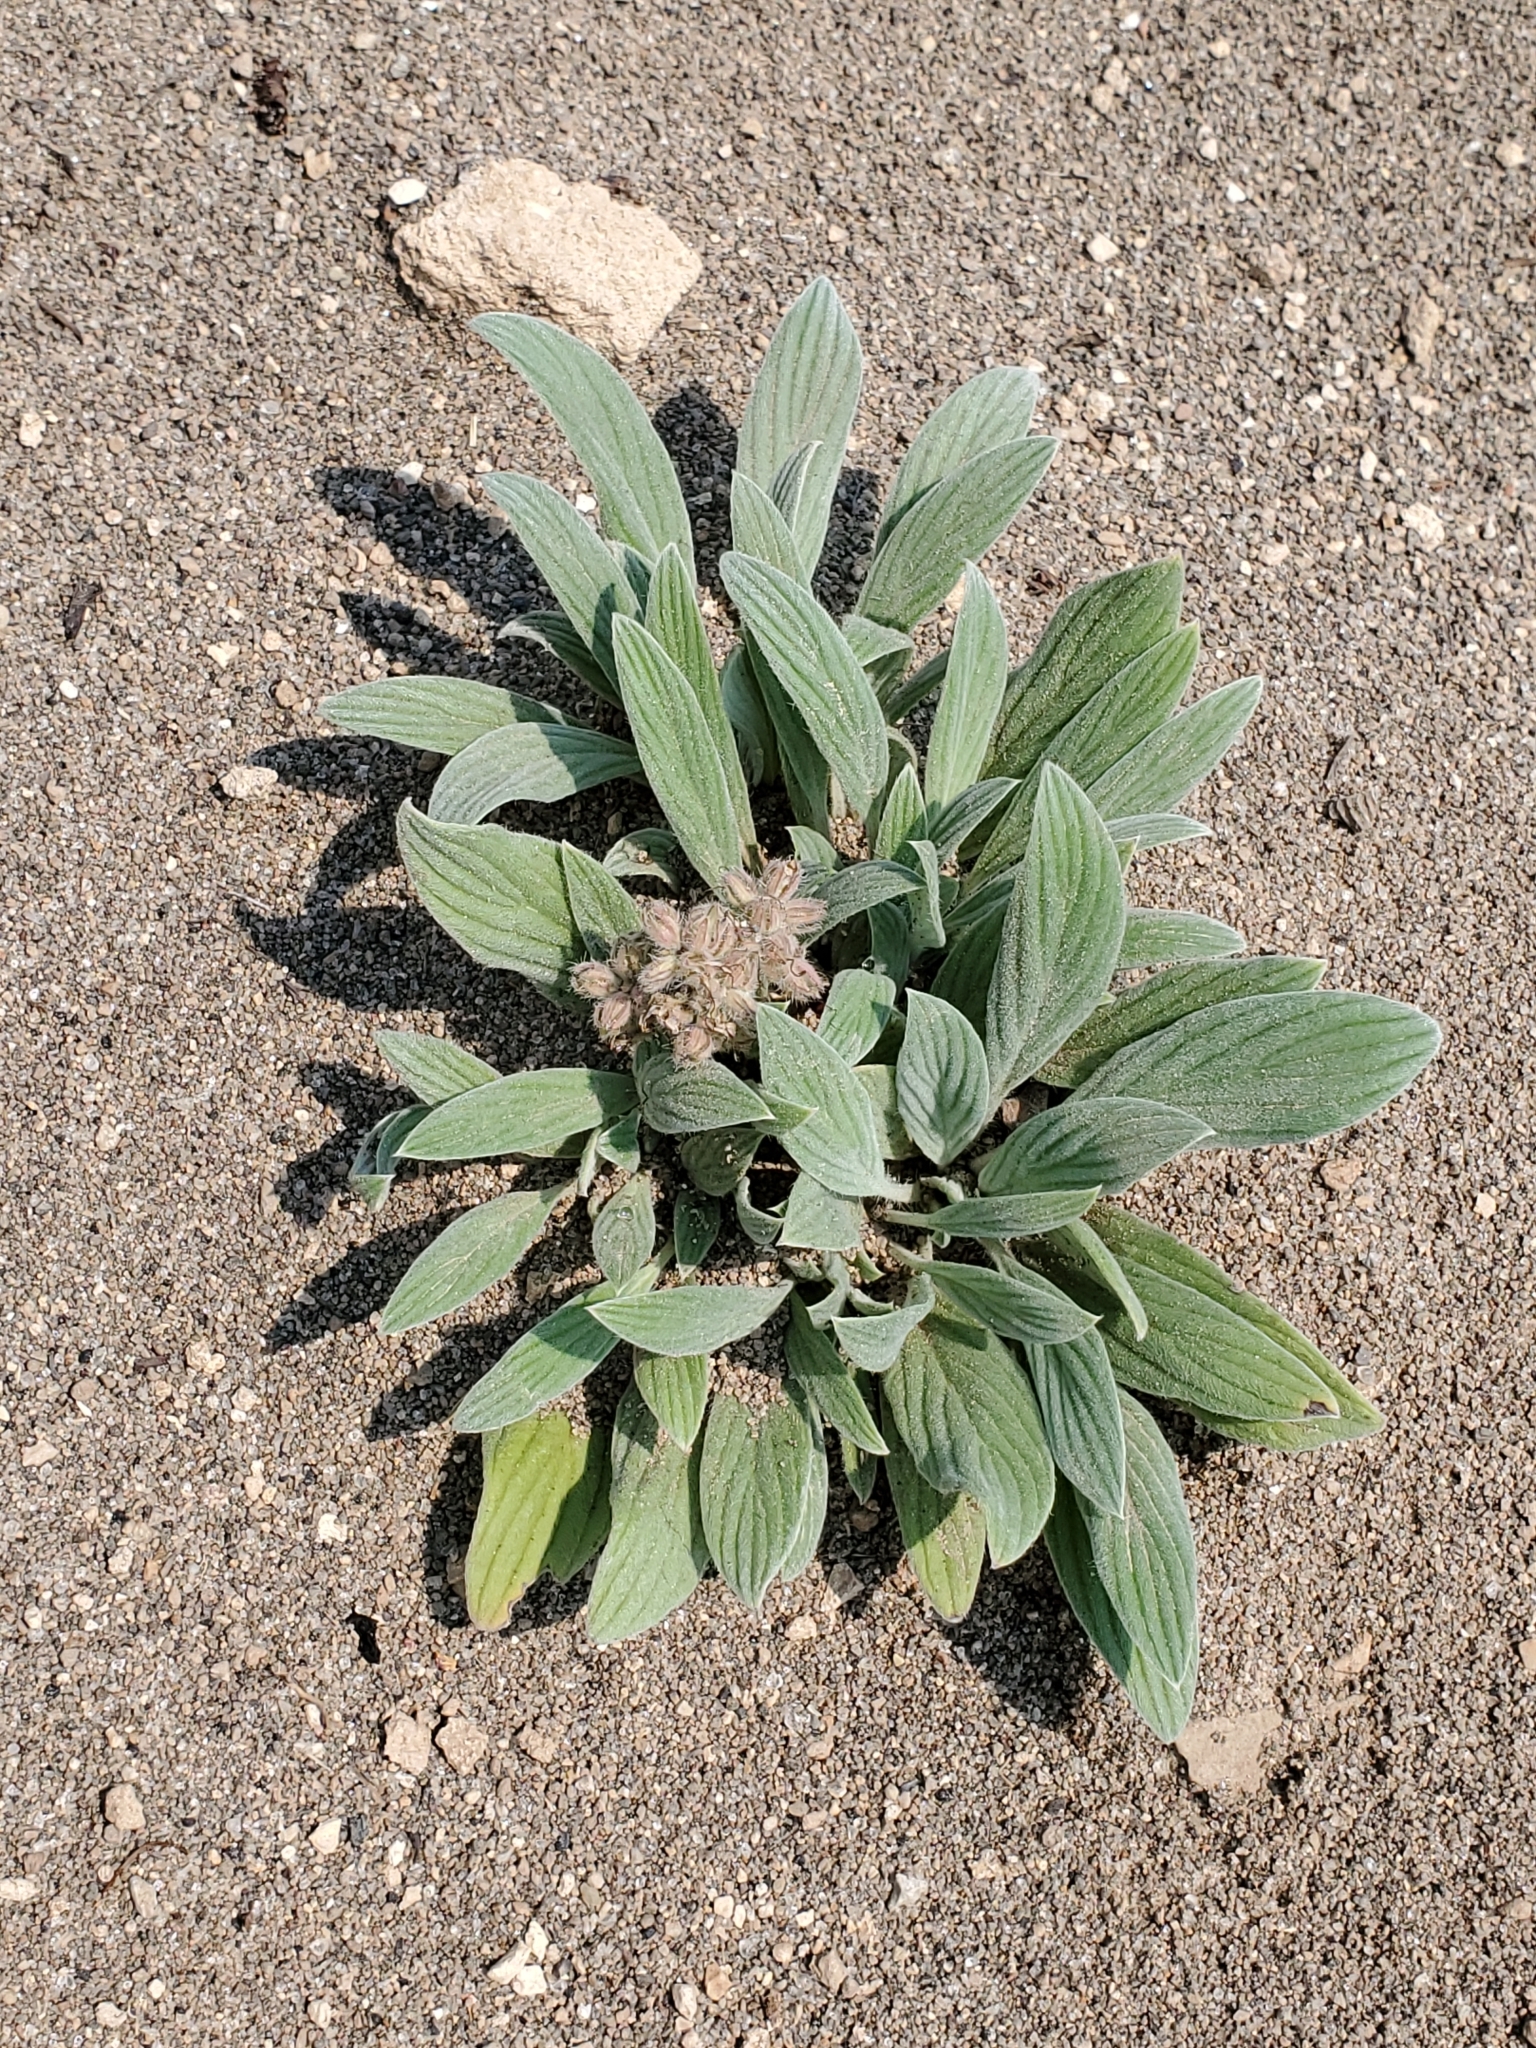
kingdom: Plantae
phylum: Tracheophyta
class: Magnoliopsida
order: Boraginales
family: Hydrophyllaceae
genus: Phacelia
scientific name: Phacelia hastata
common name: Silver-leaved phacelia
